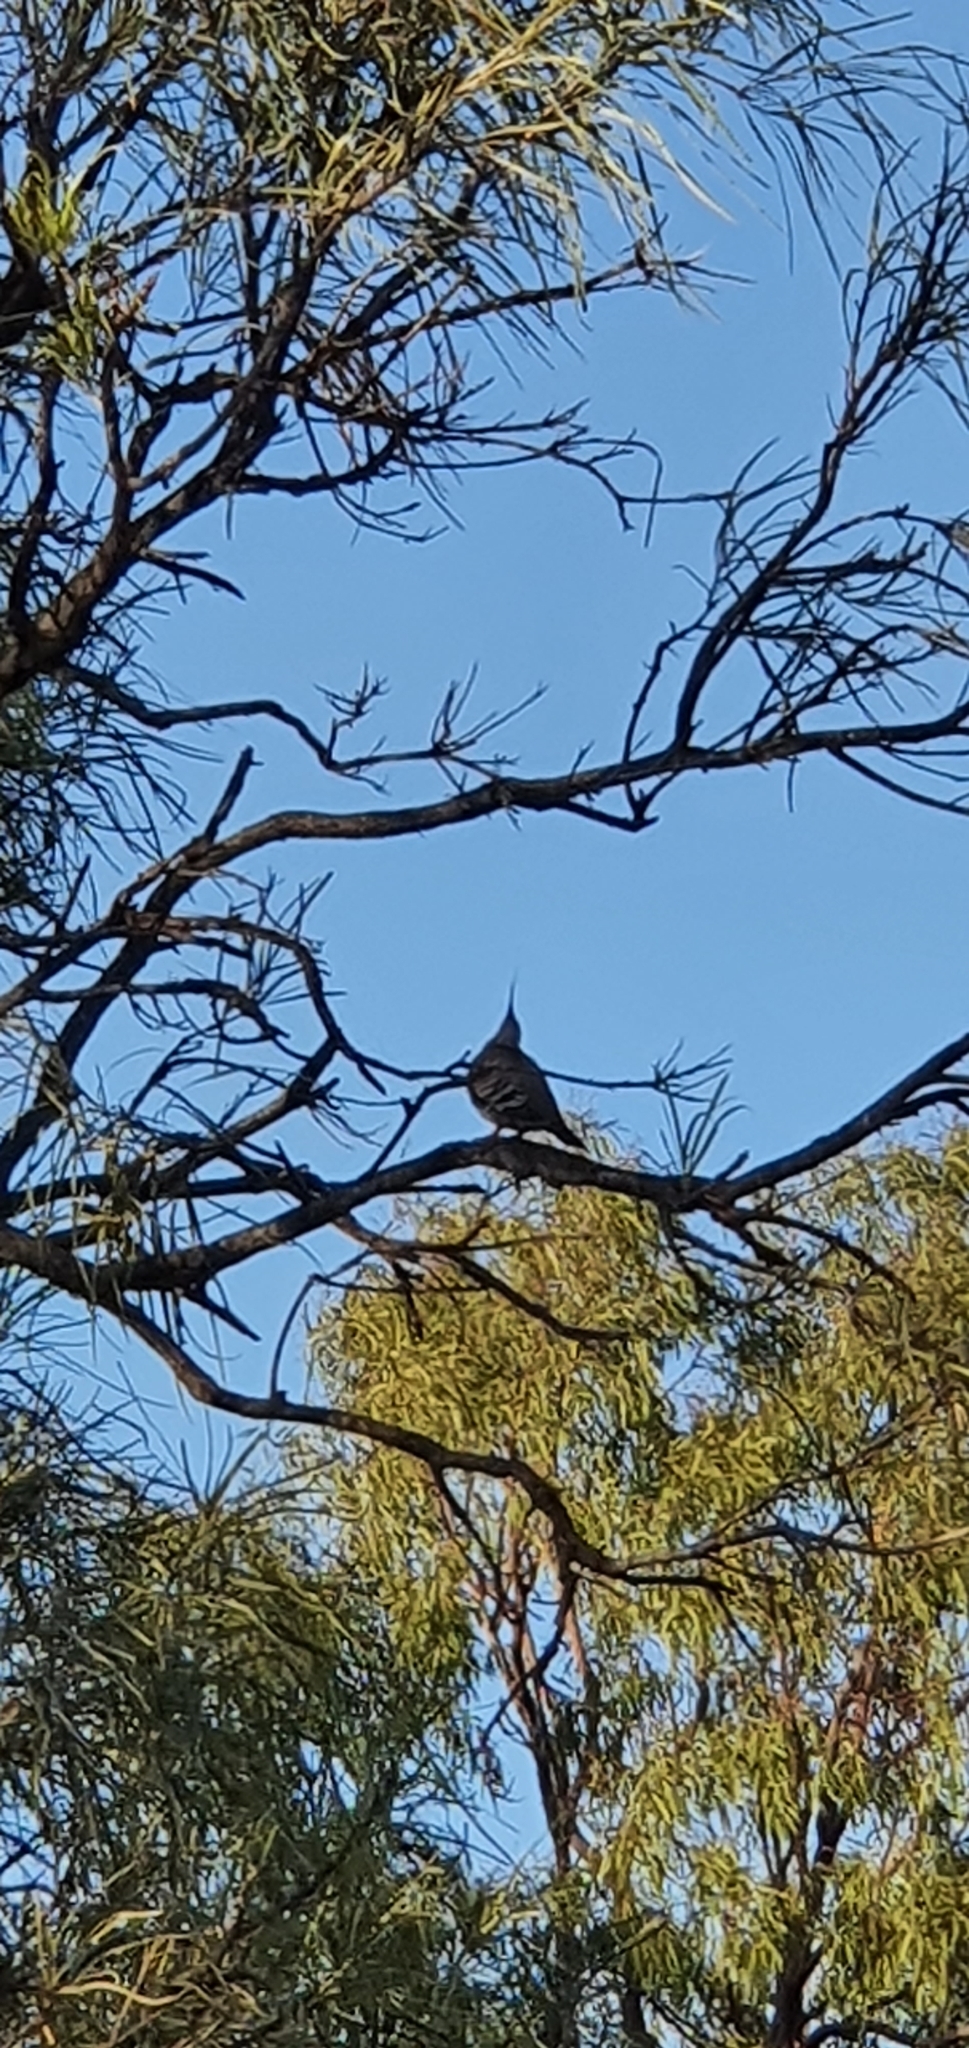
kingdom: Animalia
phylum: Chordata
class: Aves
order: Columbiformes
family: Columbidae
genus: Ocyphaps
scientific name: Ocyphaps lophotes
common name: Crested pigeon
